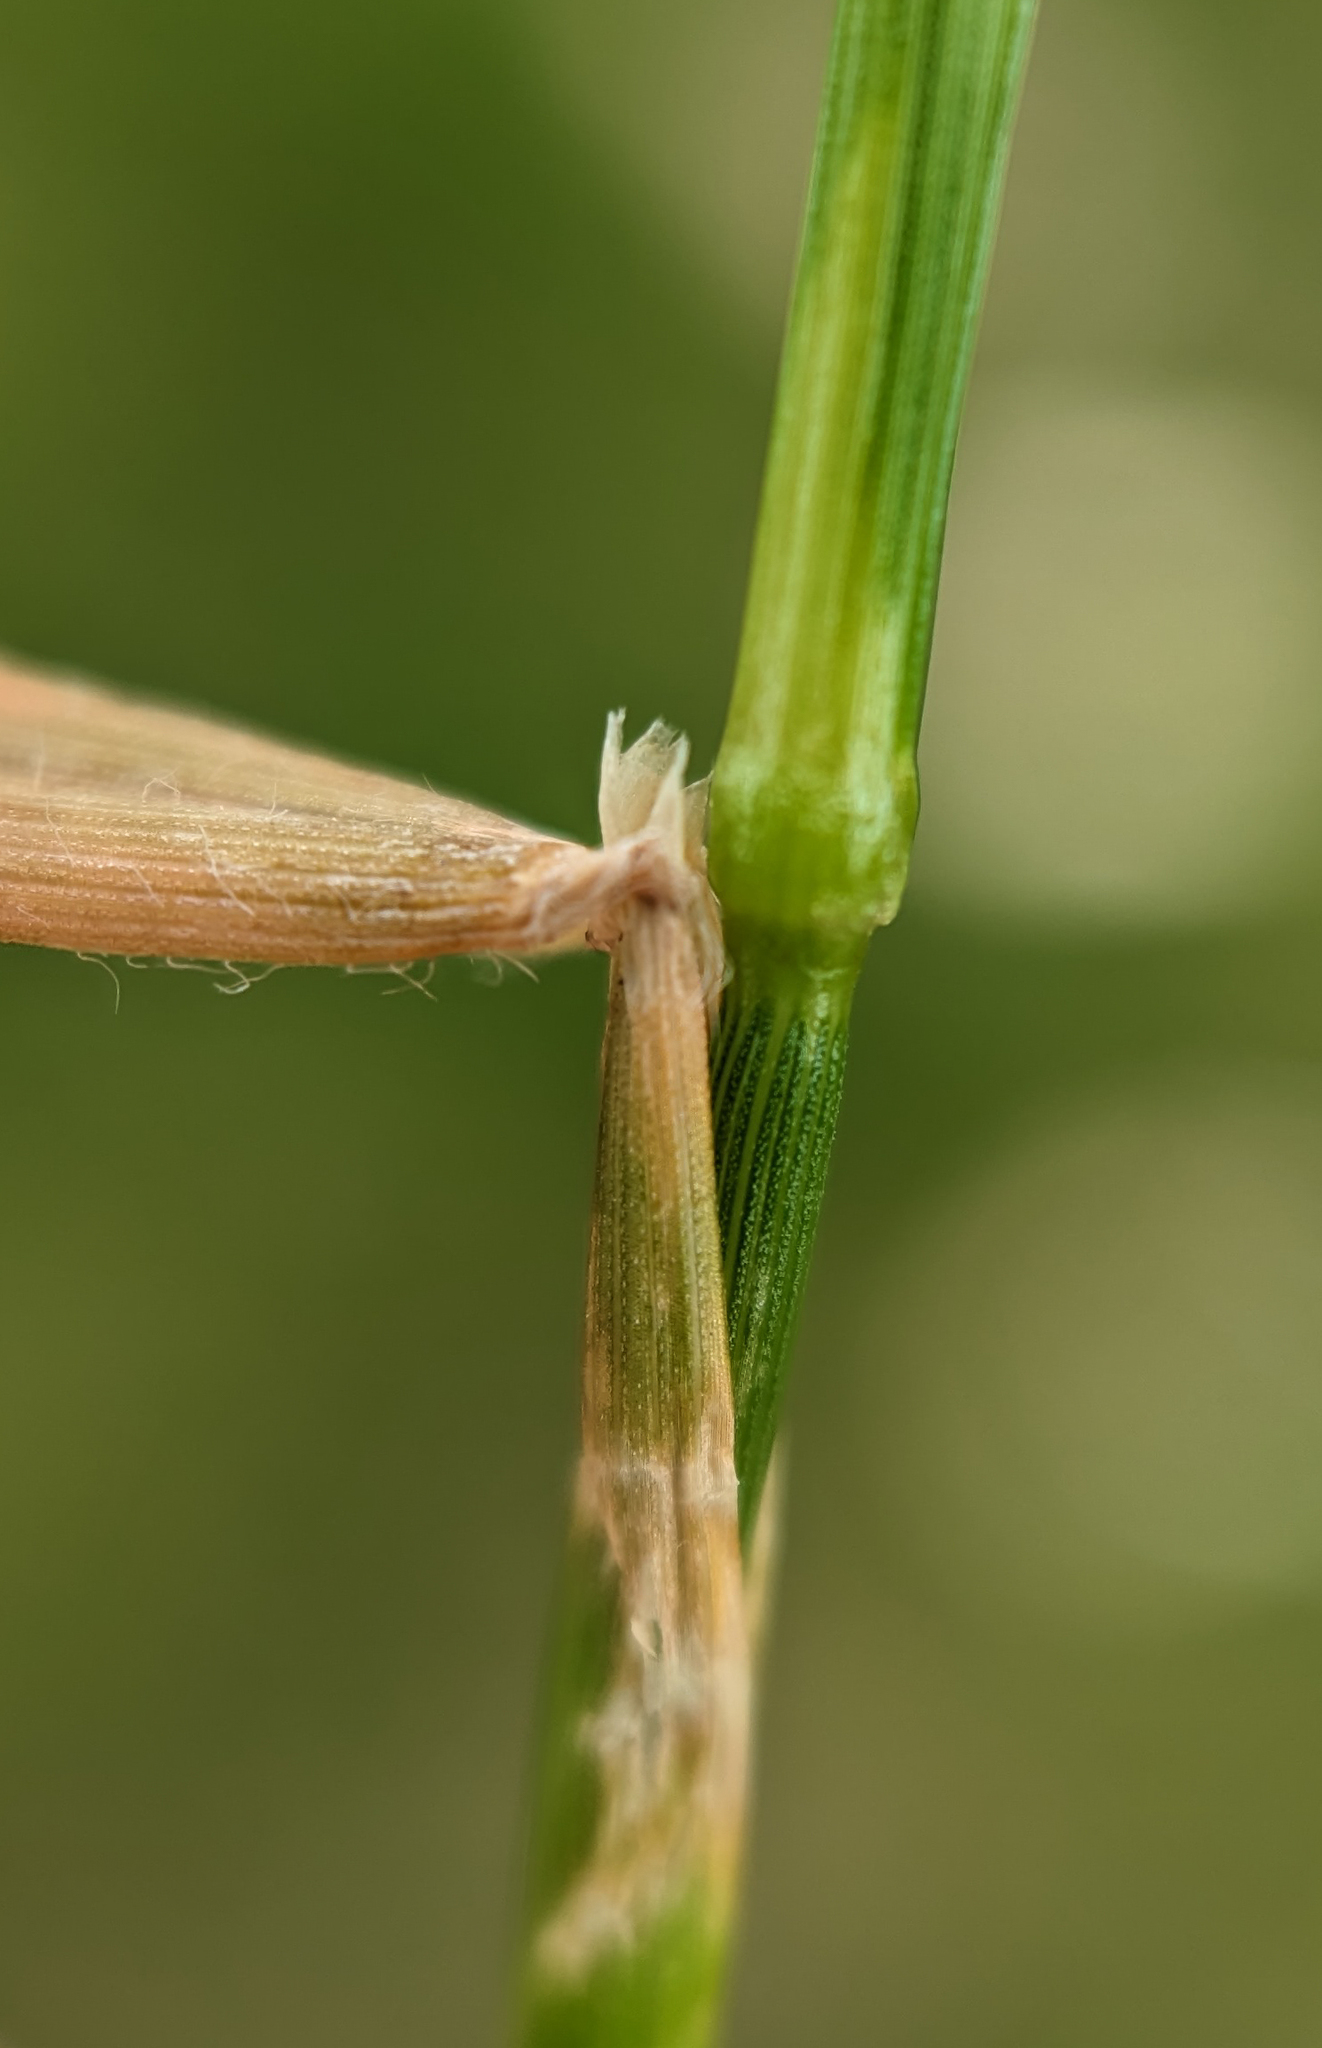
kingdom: Plantae
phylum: Tracheophyta
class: Liliopsida
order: Poales
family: Poaceae
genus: Anthoxanthum
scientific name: Anthoxanthum odoratum
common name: Sweet vernalgrass
